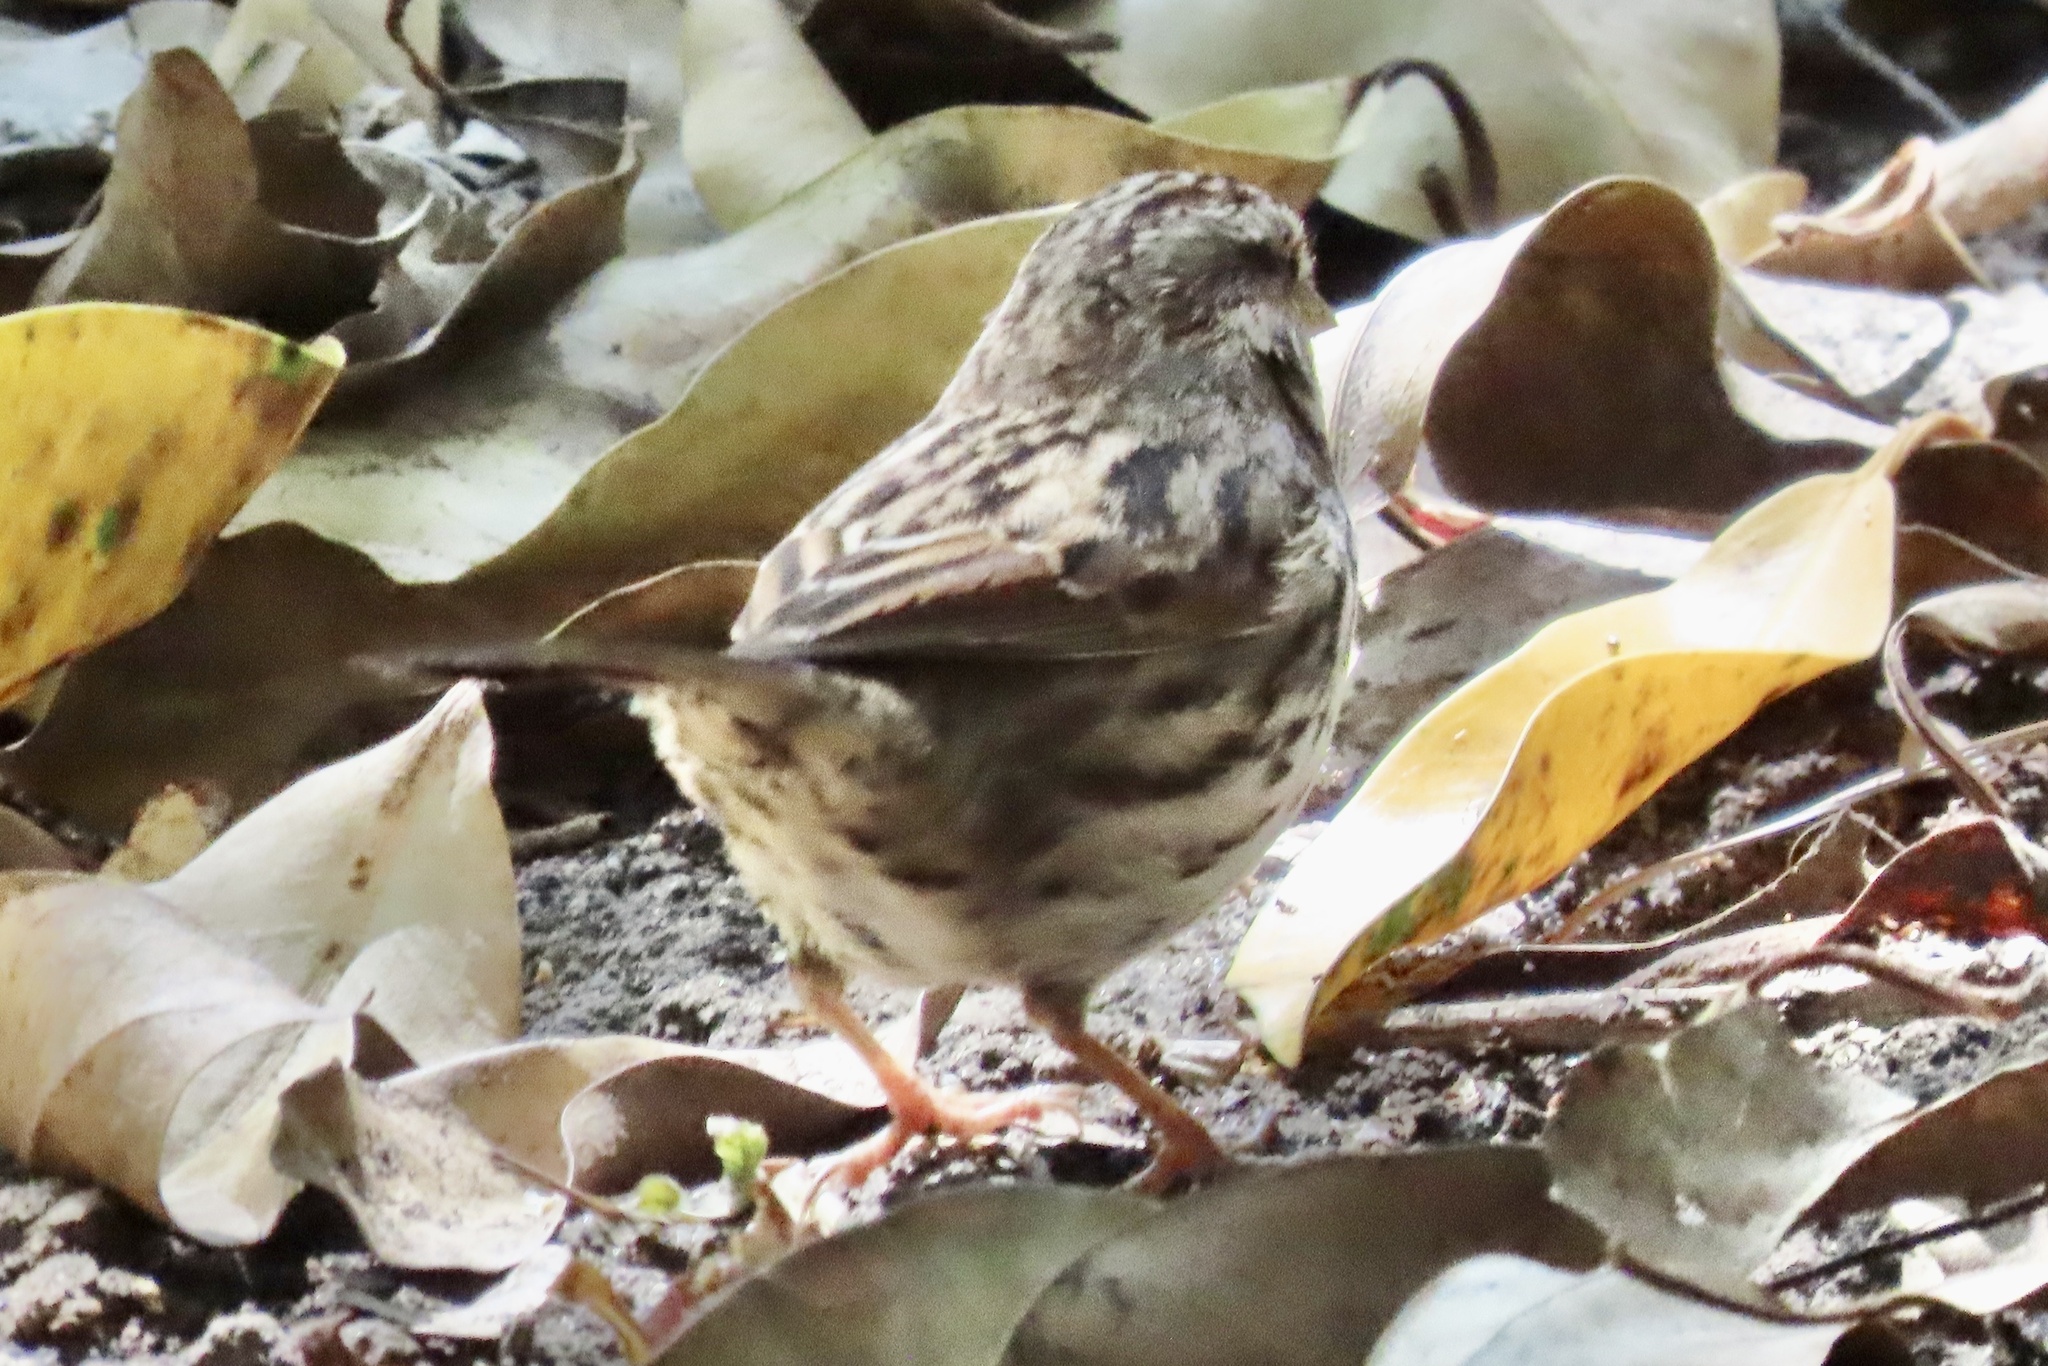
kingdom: Animalia
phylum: Chordata
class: Aves
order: Passeriformes
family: Passerellidae
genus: Melospiza
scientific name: Melospiza melodia
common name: Song sparrow
